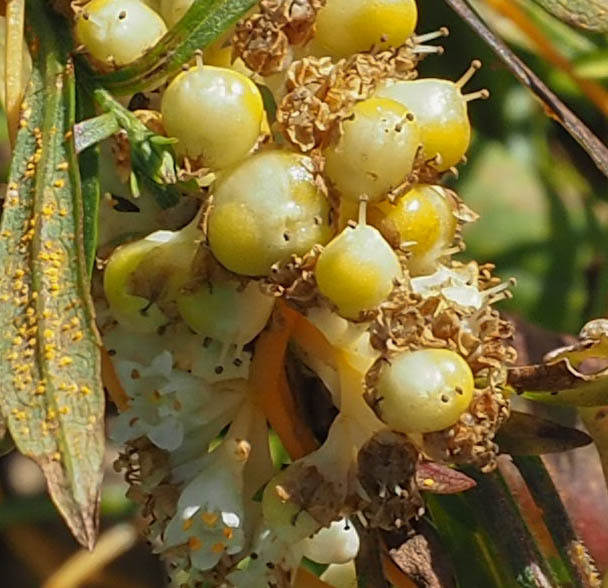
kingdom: Plantae
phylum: Tracheophyta
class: Magnoliopsida
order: Solanales
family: Convolvulaceae
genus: Cuscuta
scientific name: Cuscuta gronovii
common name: Common dodder
